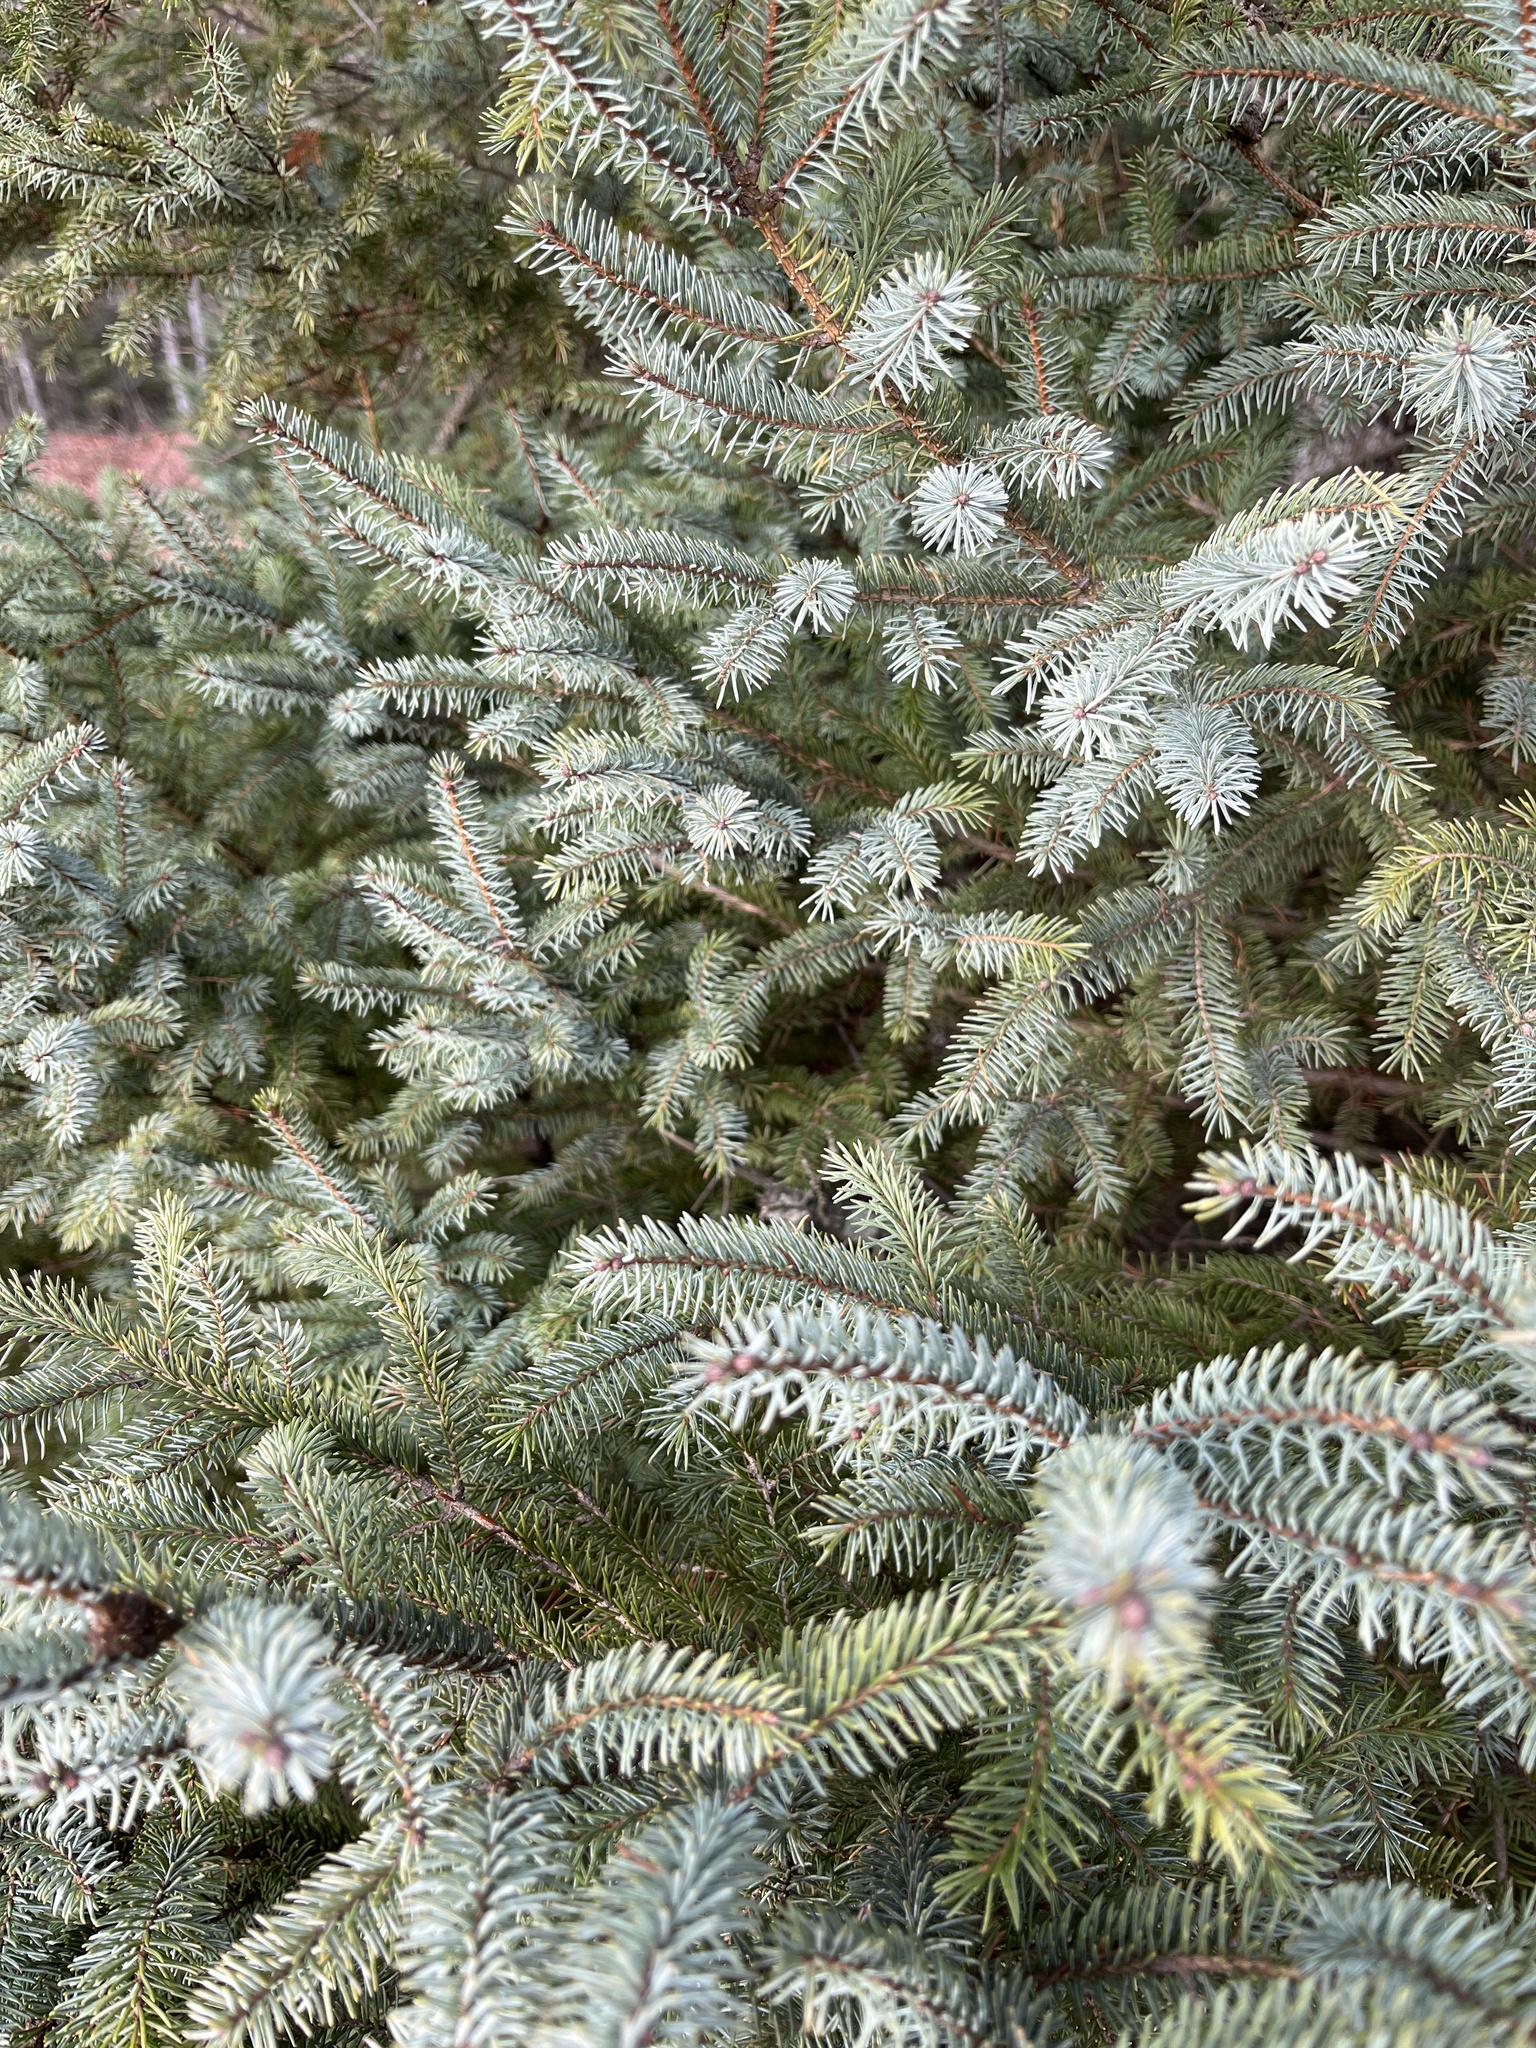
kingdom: Plantae
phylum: Tracheophyta
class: Pinopsida
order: Pinales
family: Pinaceae
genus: Picea
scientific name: Picea mariana
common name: Black spruce
